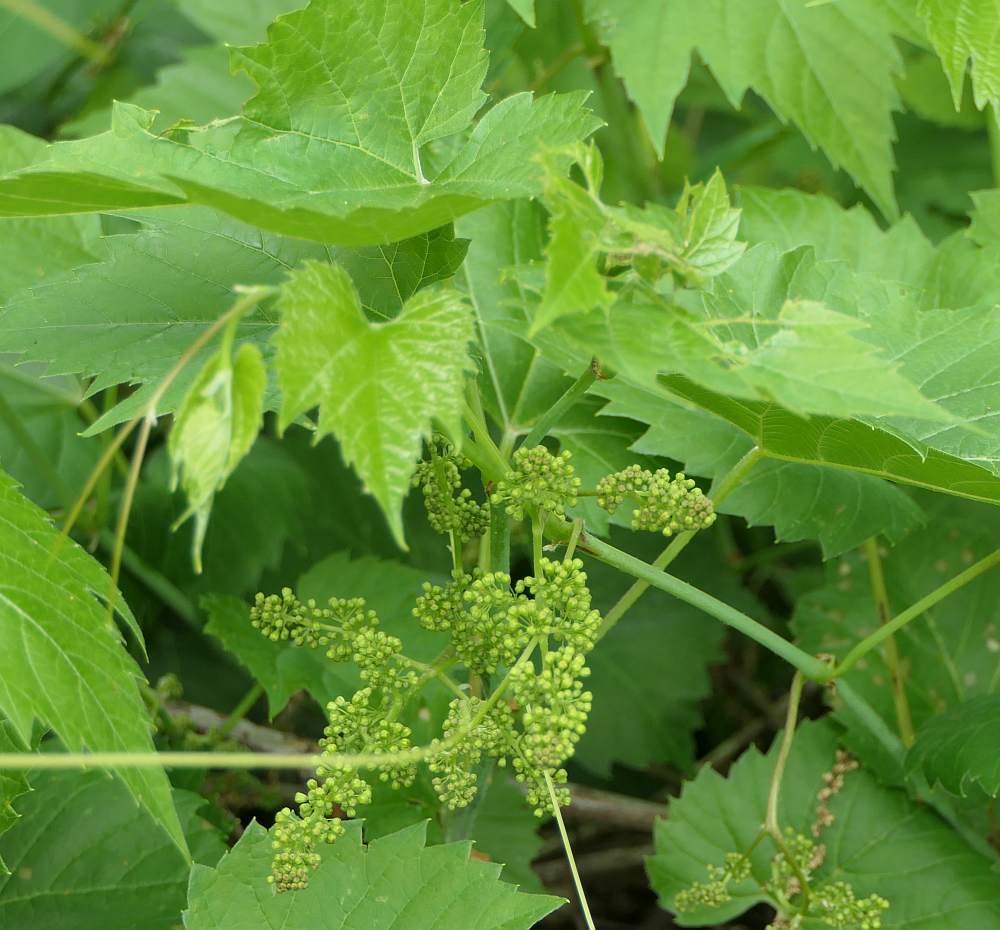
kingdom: Plantae
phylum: Tracheophyta
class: Magnoliopsida
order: Vitales
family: Vitaceae
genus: Vitis
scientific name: Vitis riparia
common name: Frost grape
